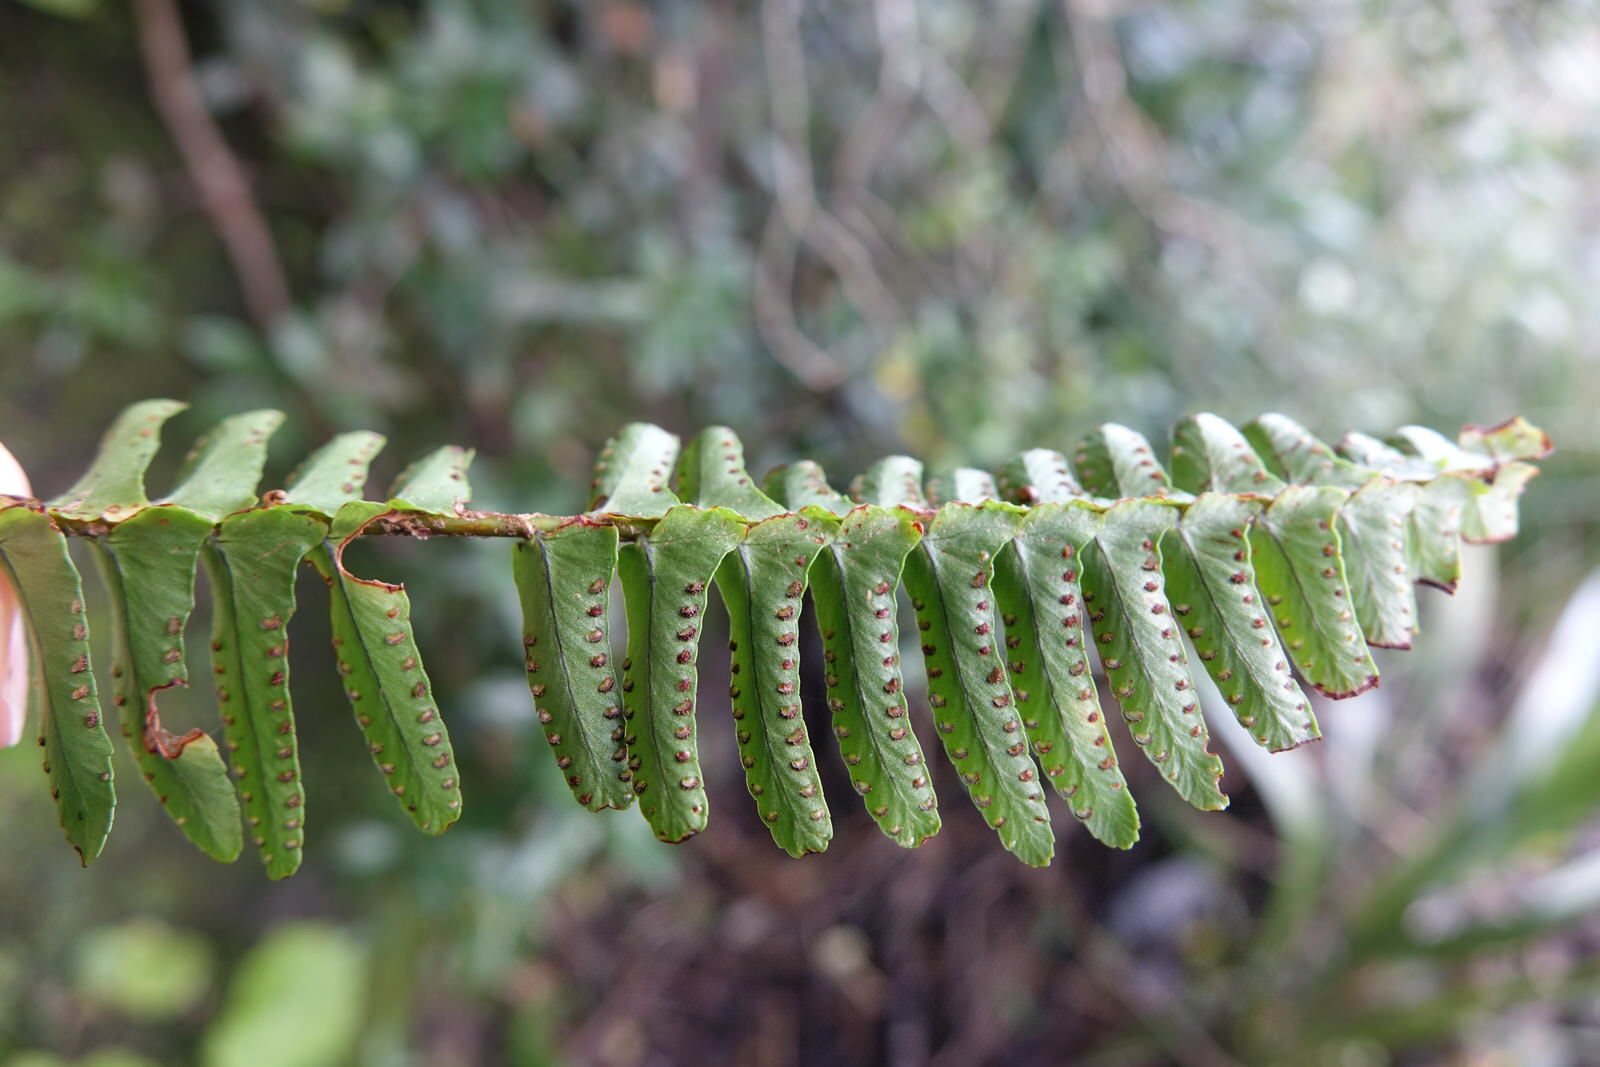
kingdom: Plantae
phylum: Tracheophyta
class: Polypodiopsida
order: Polypodiales
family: Nephrolepidaceae
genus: Nephrolepis
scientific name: Nephrolepis cordifolia
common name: Narrow swordfern
